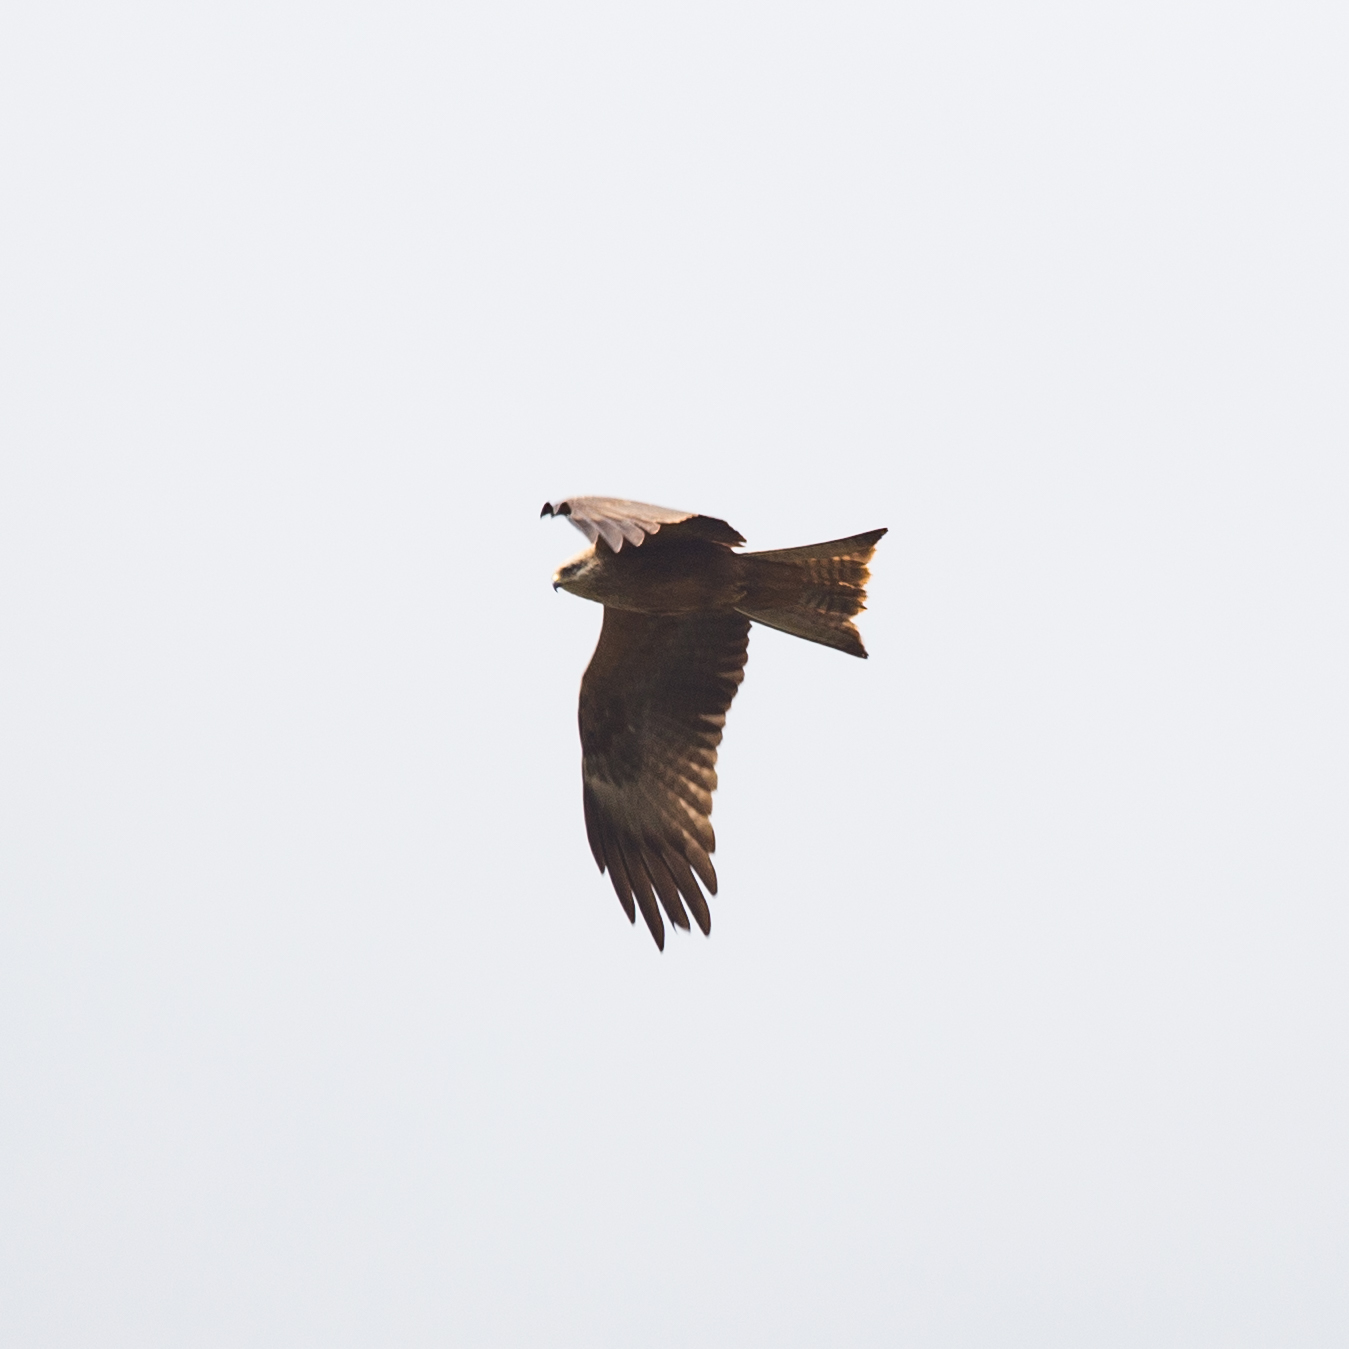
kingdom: Animalia
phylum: Chordata
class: Aves
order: Accipitriformes
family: Accipitridae
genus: Milvus
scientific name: Milvus migrans
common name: Black kite
